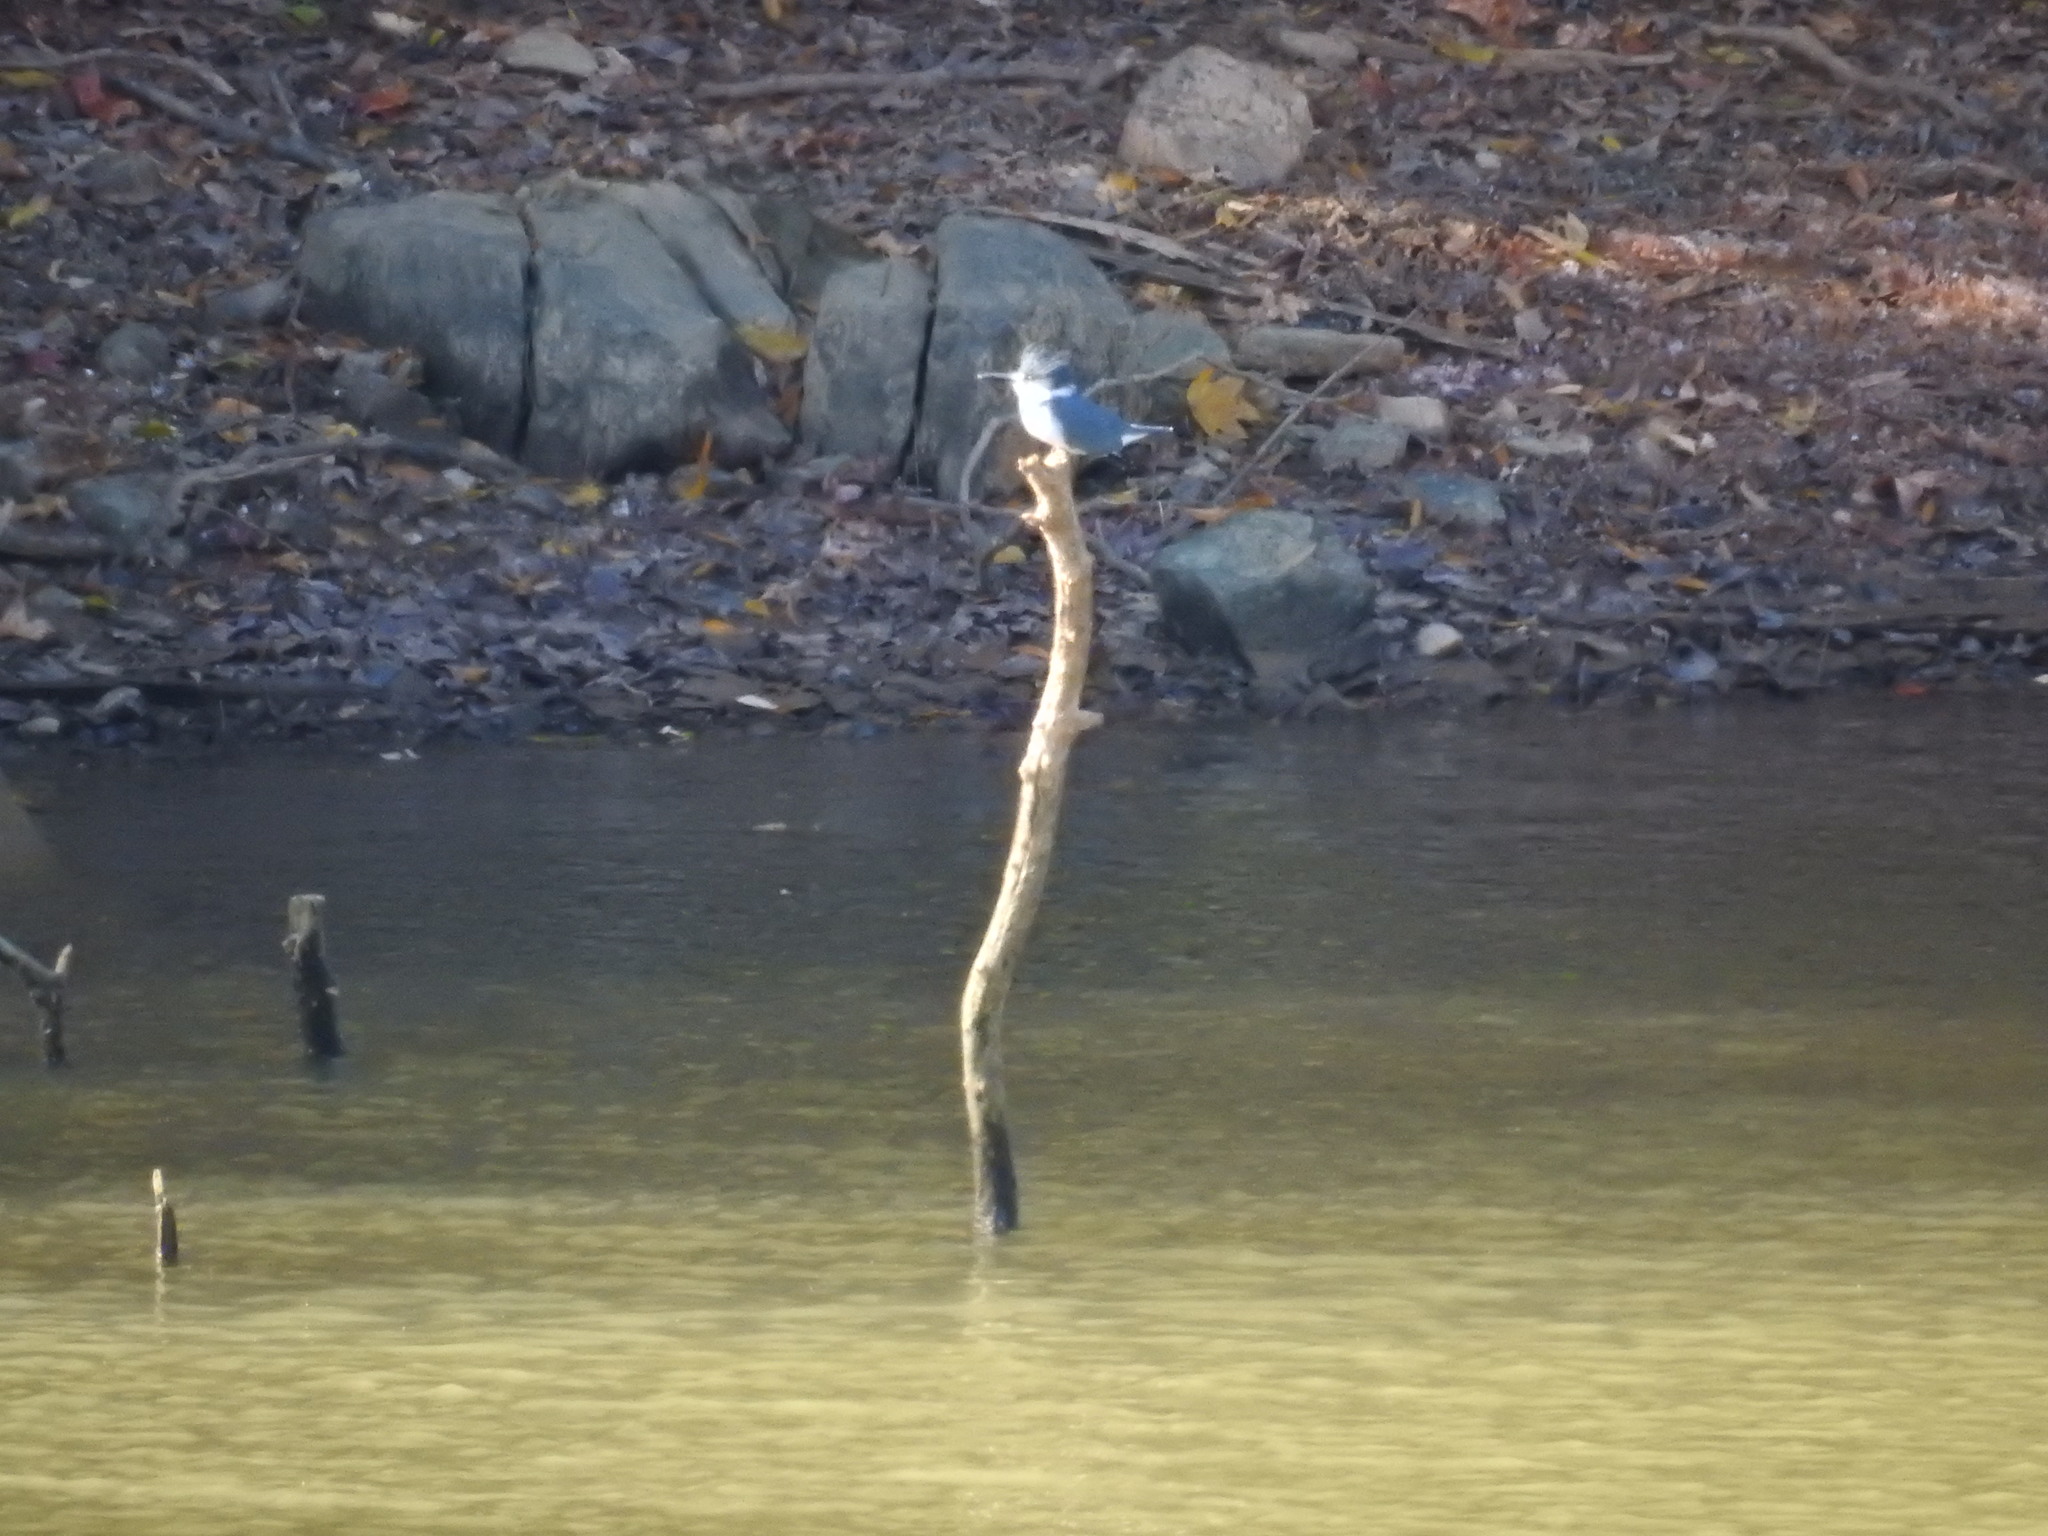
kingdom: Animalia
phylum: Chordata
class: Aves
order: Coraciiformes
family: Alcedinidae
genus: Megaceryle
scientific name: Megaceryle alcyon
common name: Belted kingfisher
